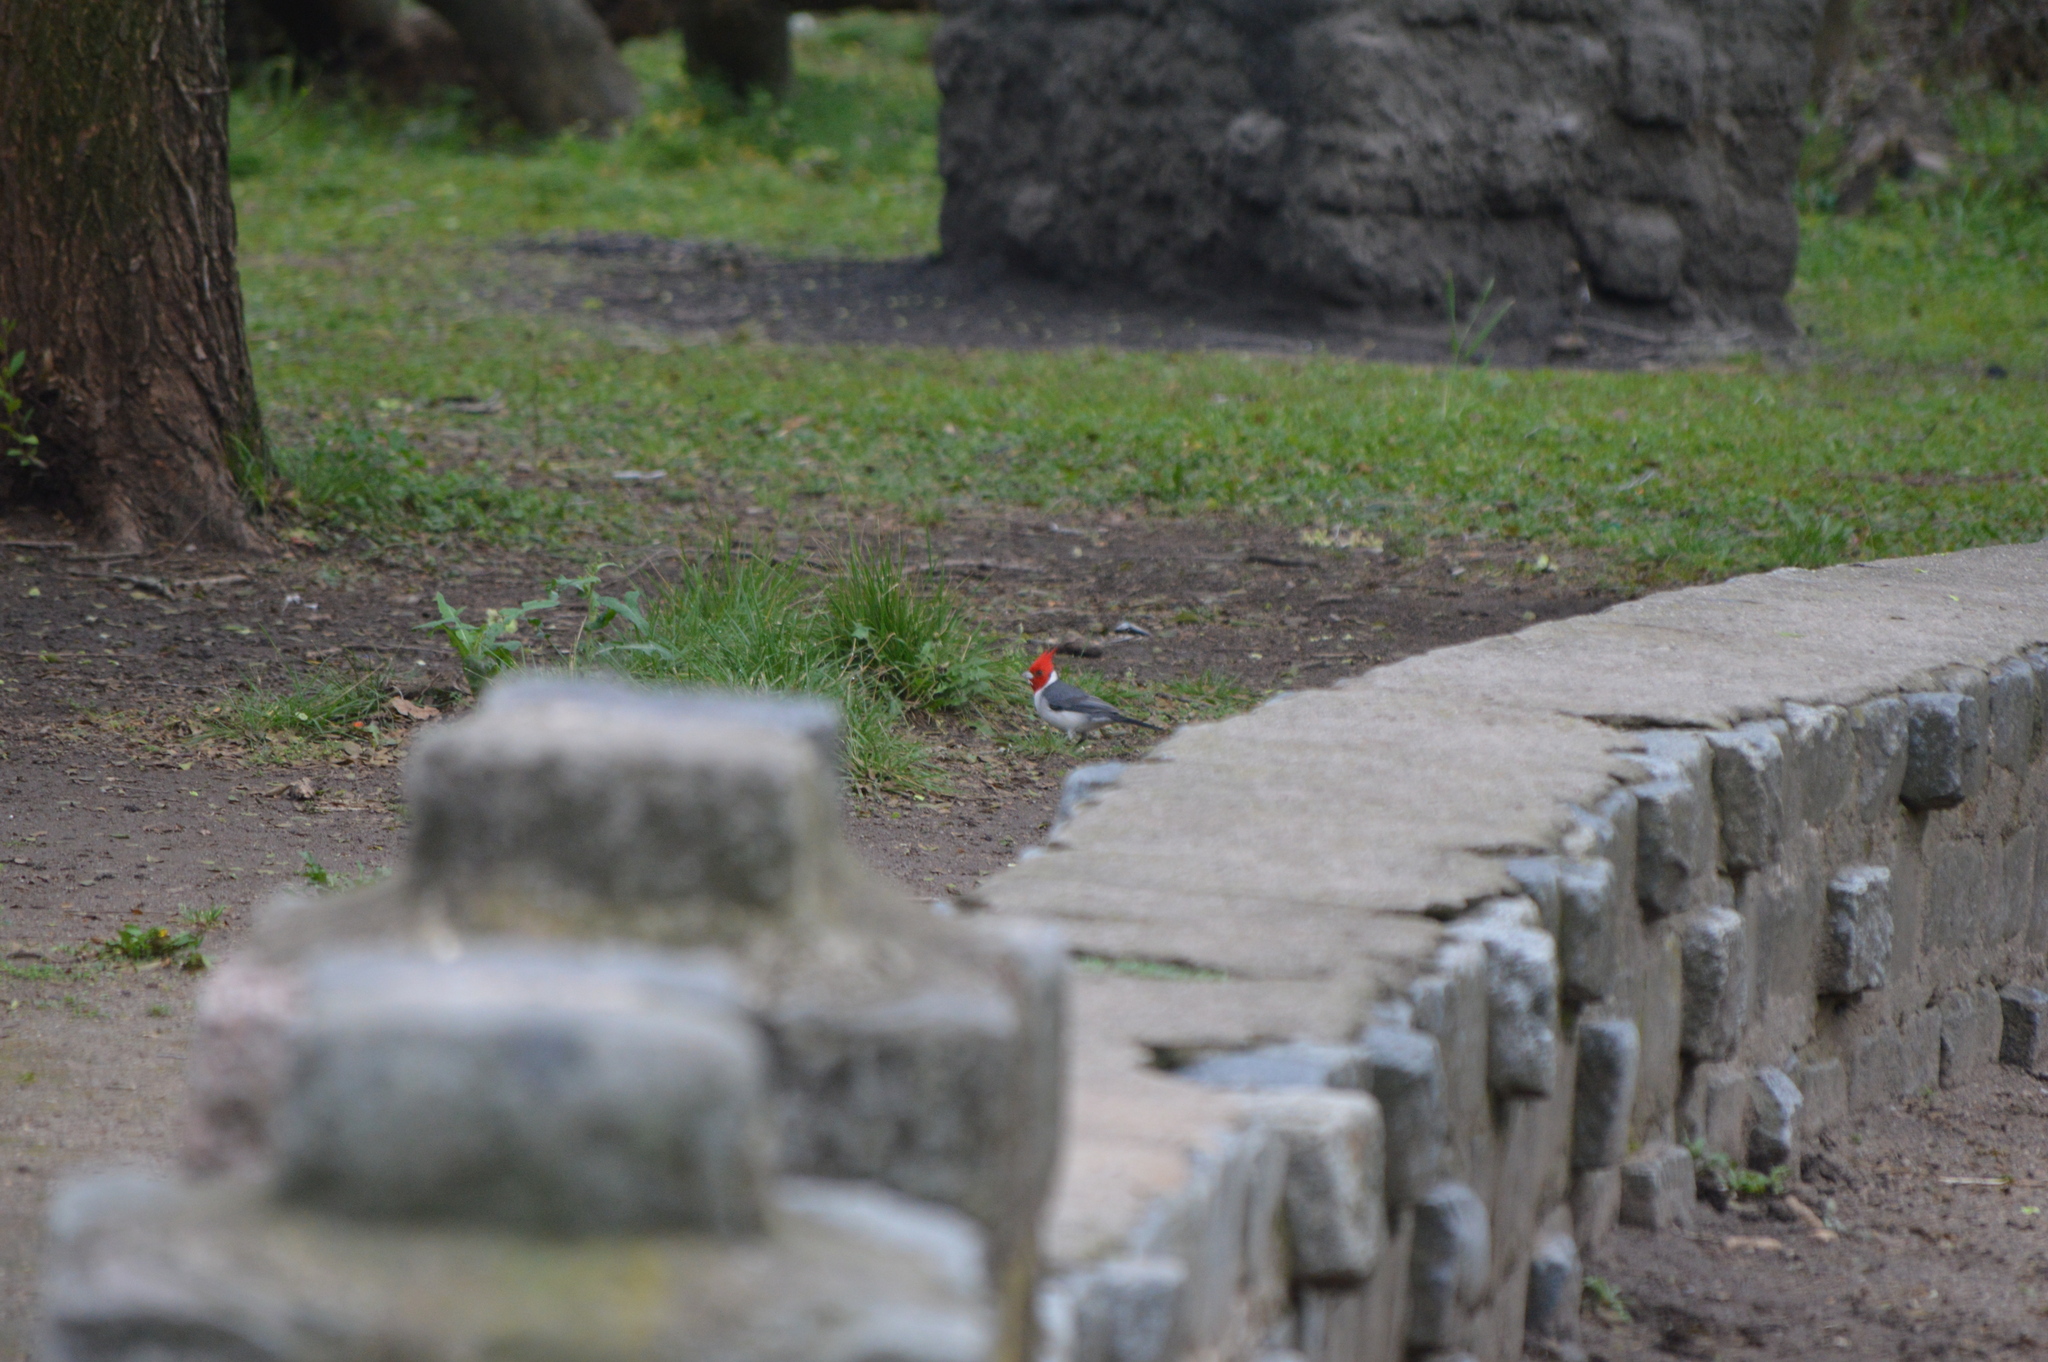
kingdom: Animalia
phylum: Chordata
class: Aves
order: Passeriformes
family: Thraupidae
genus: Paroaria
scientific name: Paroaria coronata
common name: Red-crested cardinal
